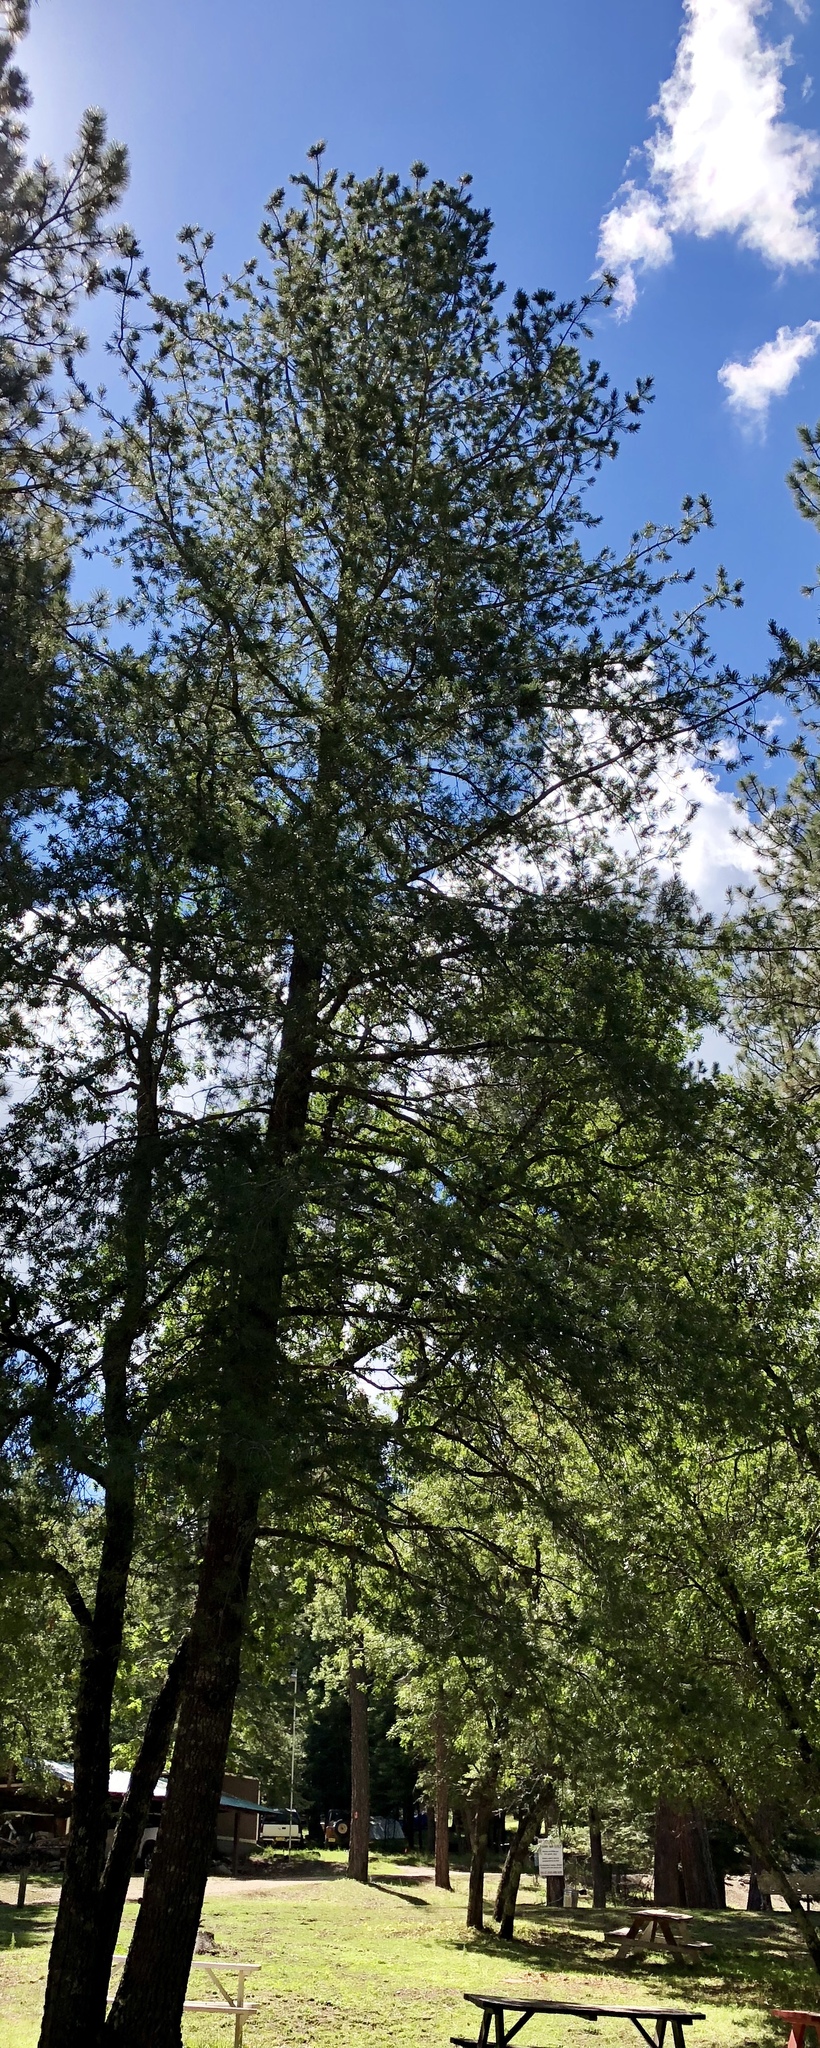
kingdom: Plantae
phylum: Tracheophyta
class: Pinopsida
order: Pinales
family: Pinaceae
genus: Pinus
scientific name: Pinus strobiformis
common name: Southwestern white pine
